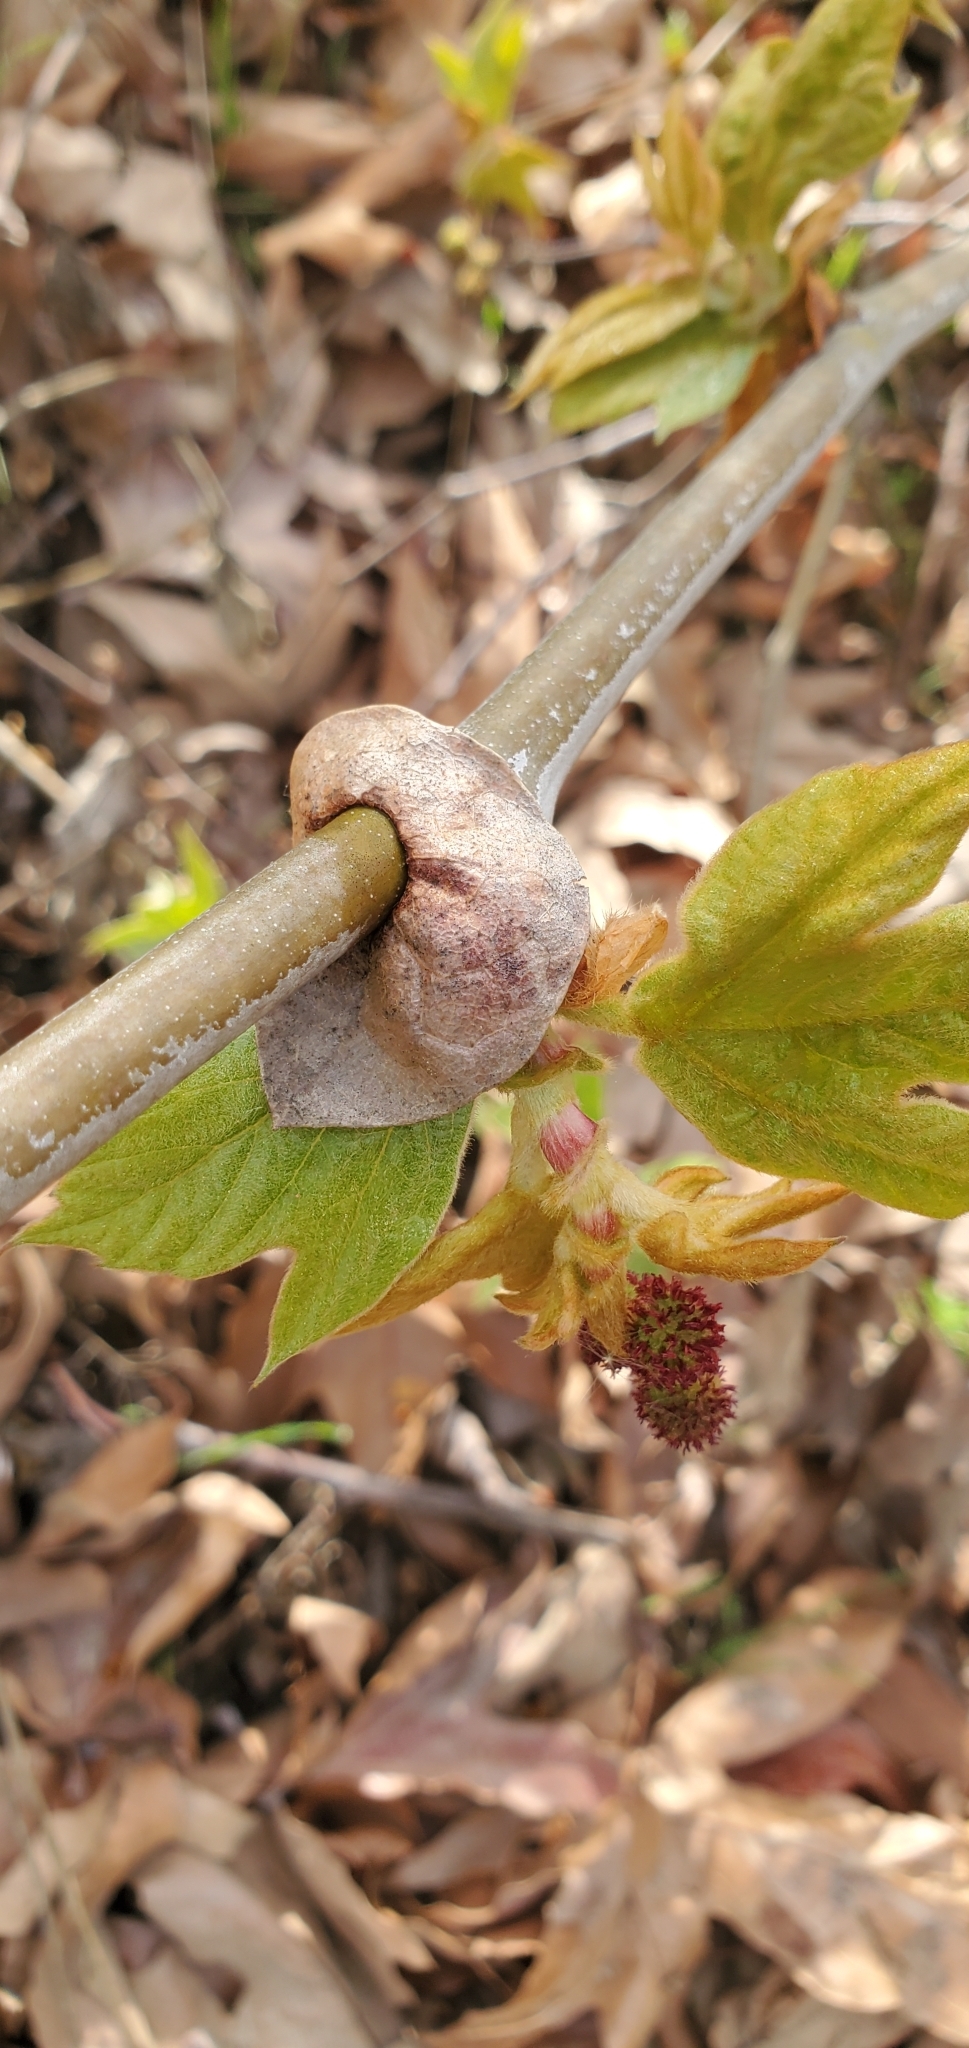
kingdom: Plantae
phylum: Tracheophyta
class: Magnoliopsida
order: Proteales
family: Platanaceae
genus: Platanus
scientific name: Platanus racemosa
